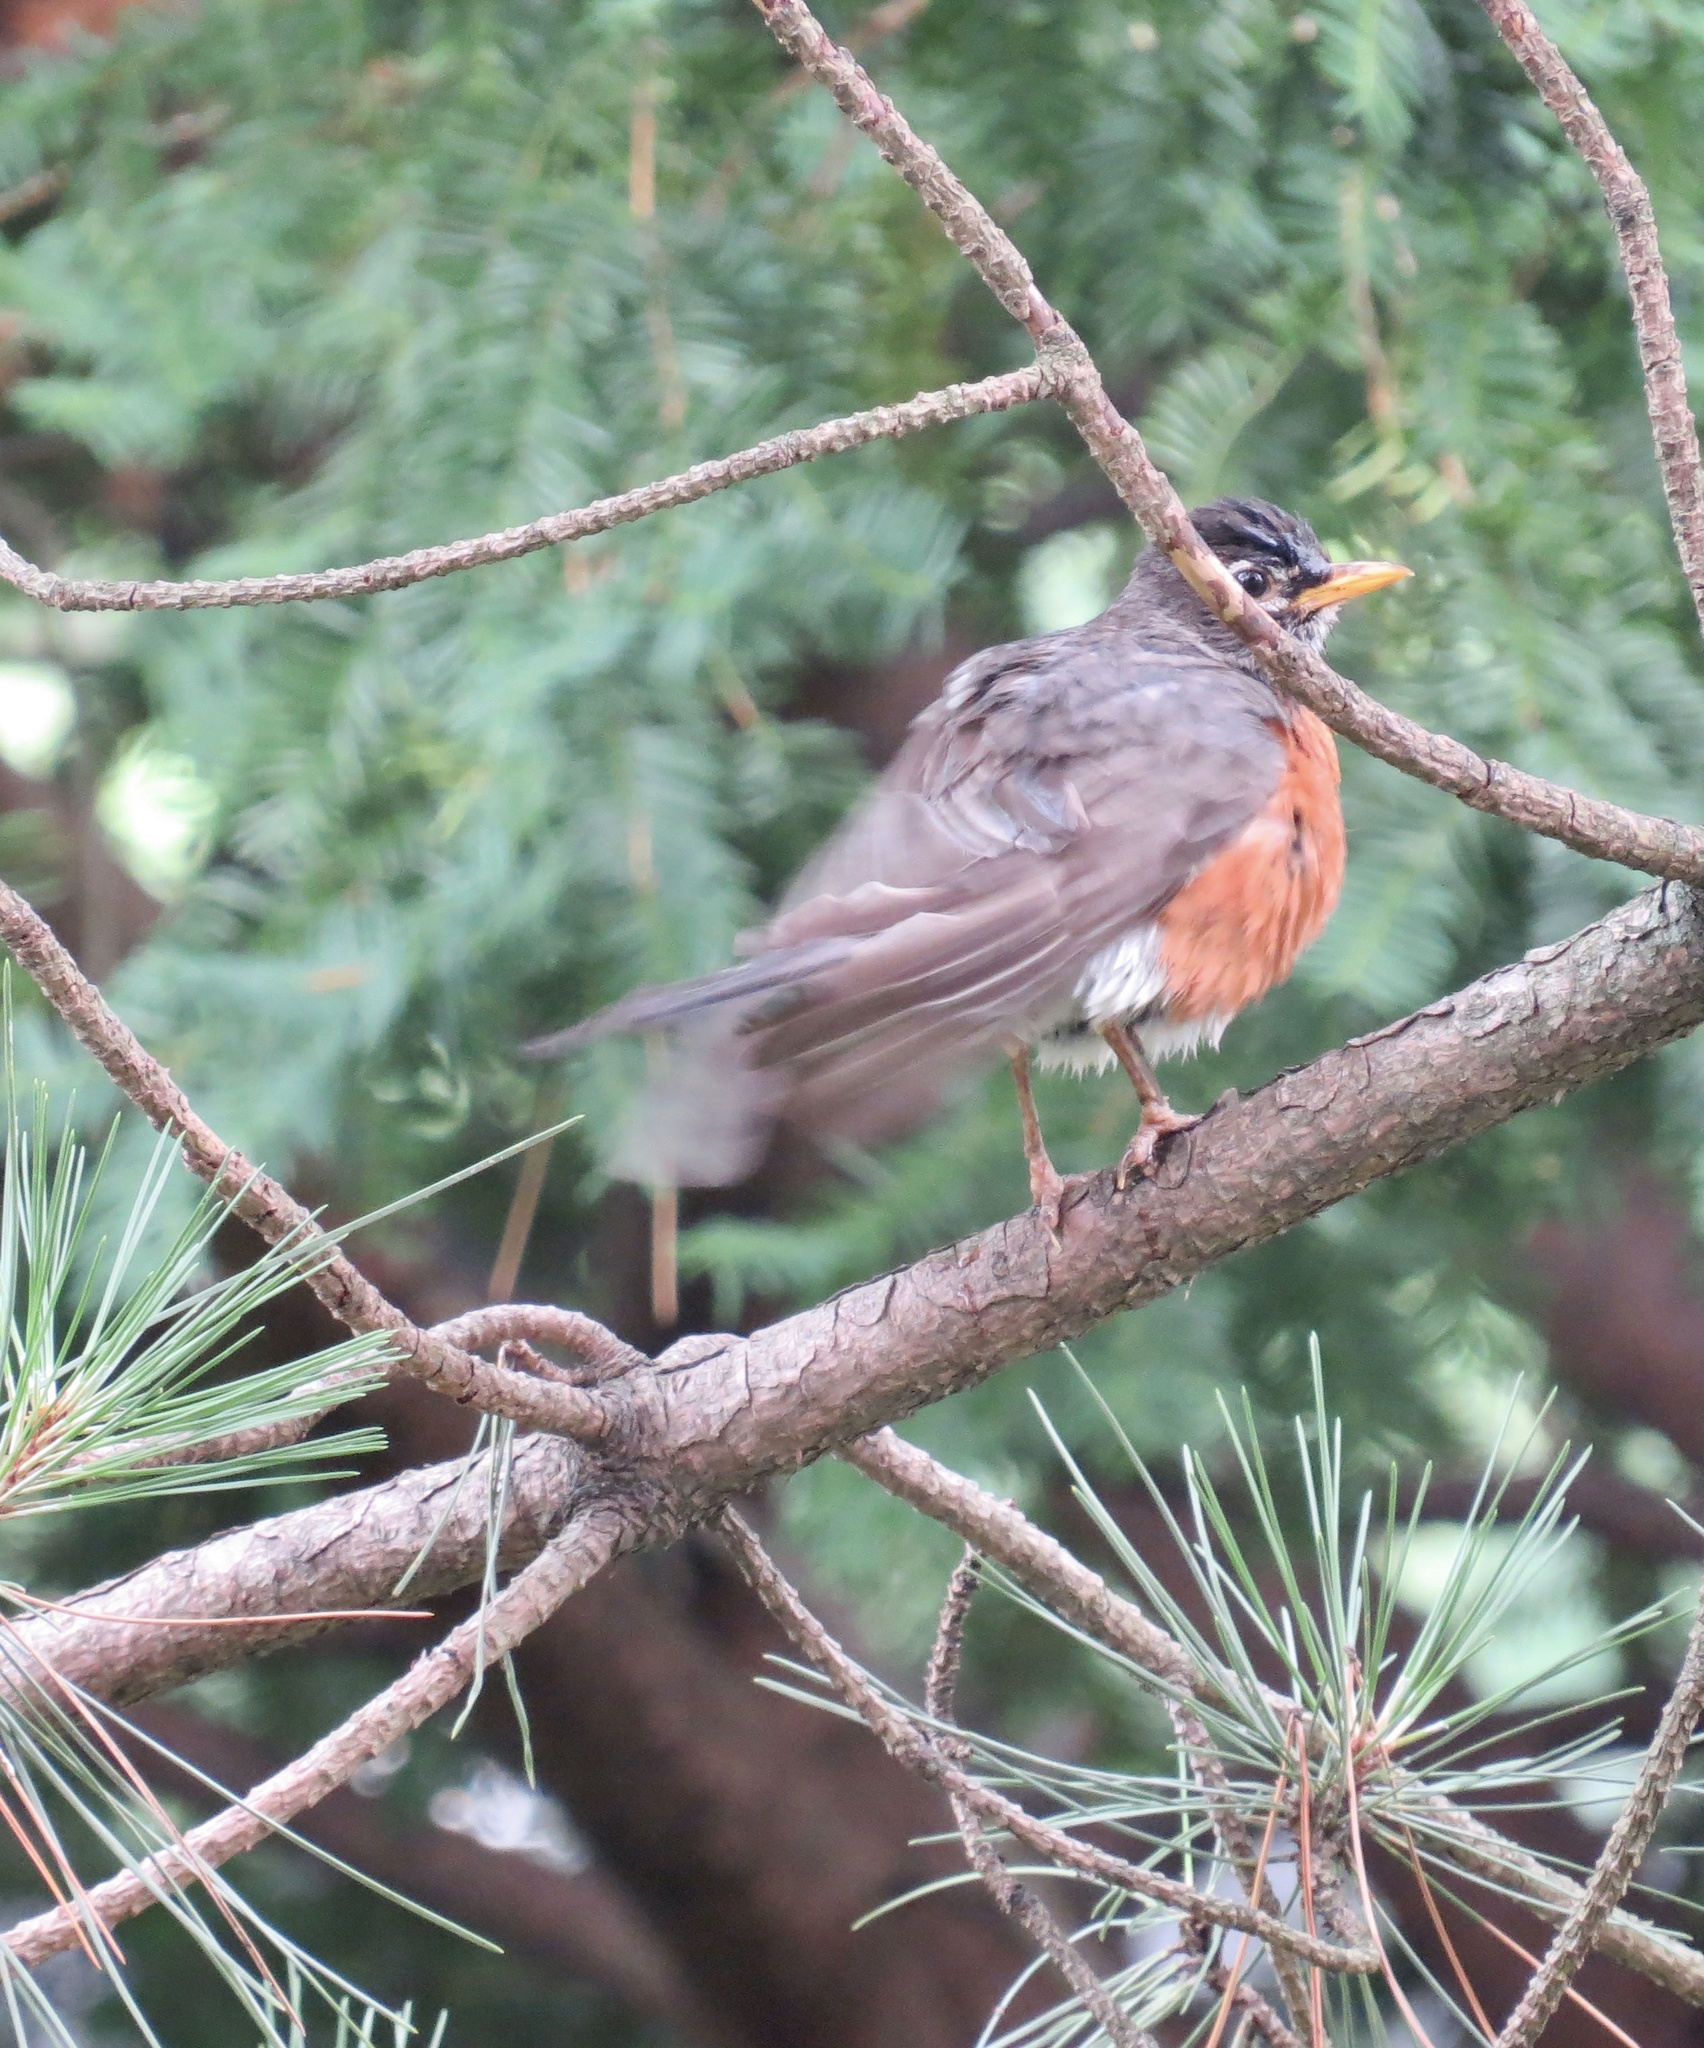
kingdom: Animalia
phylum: Chordata
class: Aves
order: Passeriformes
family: Turdidae
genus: Turdus
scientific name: Turdus migratorius
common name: American robin
